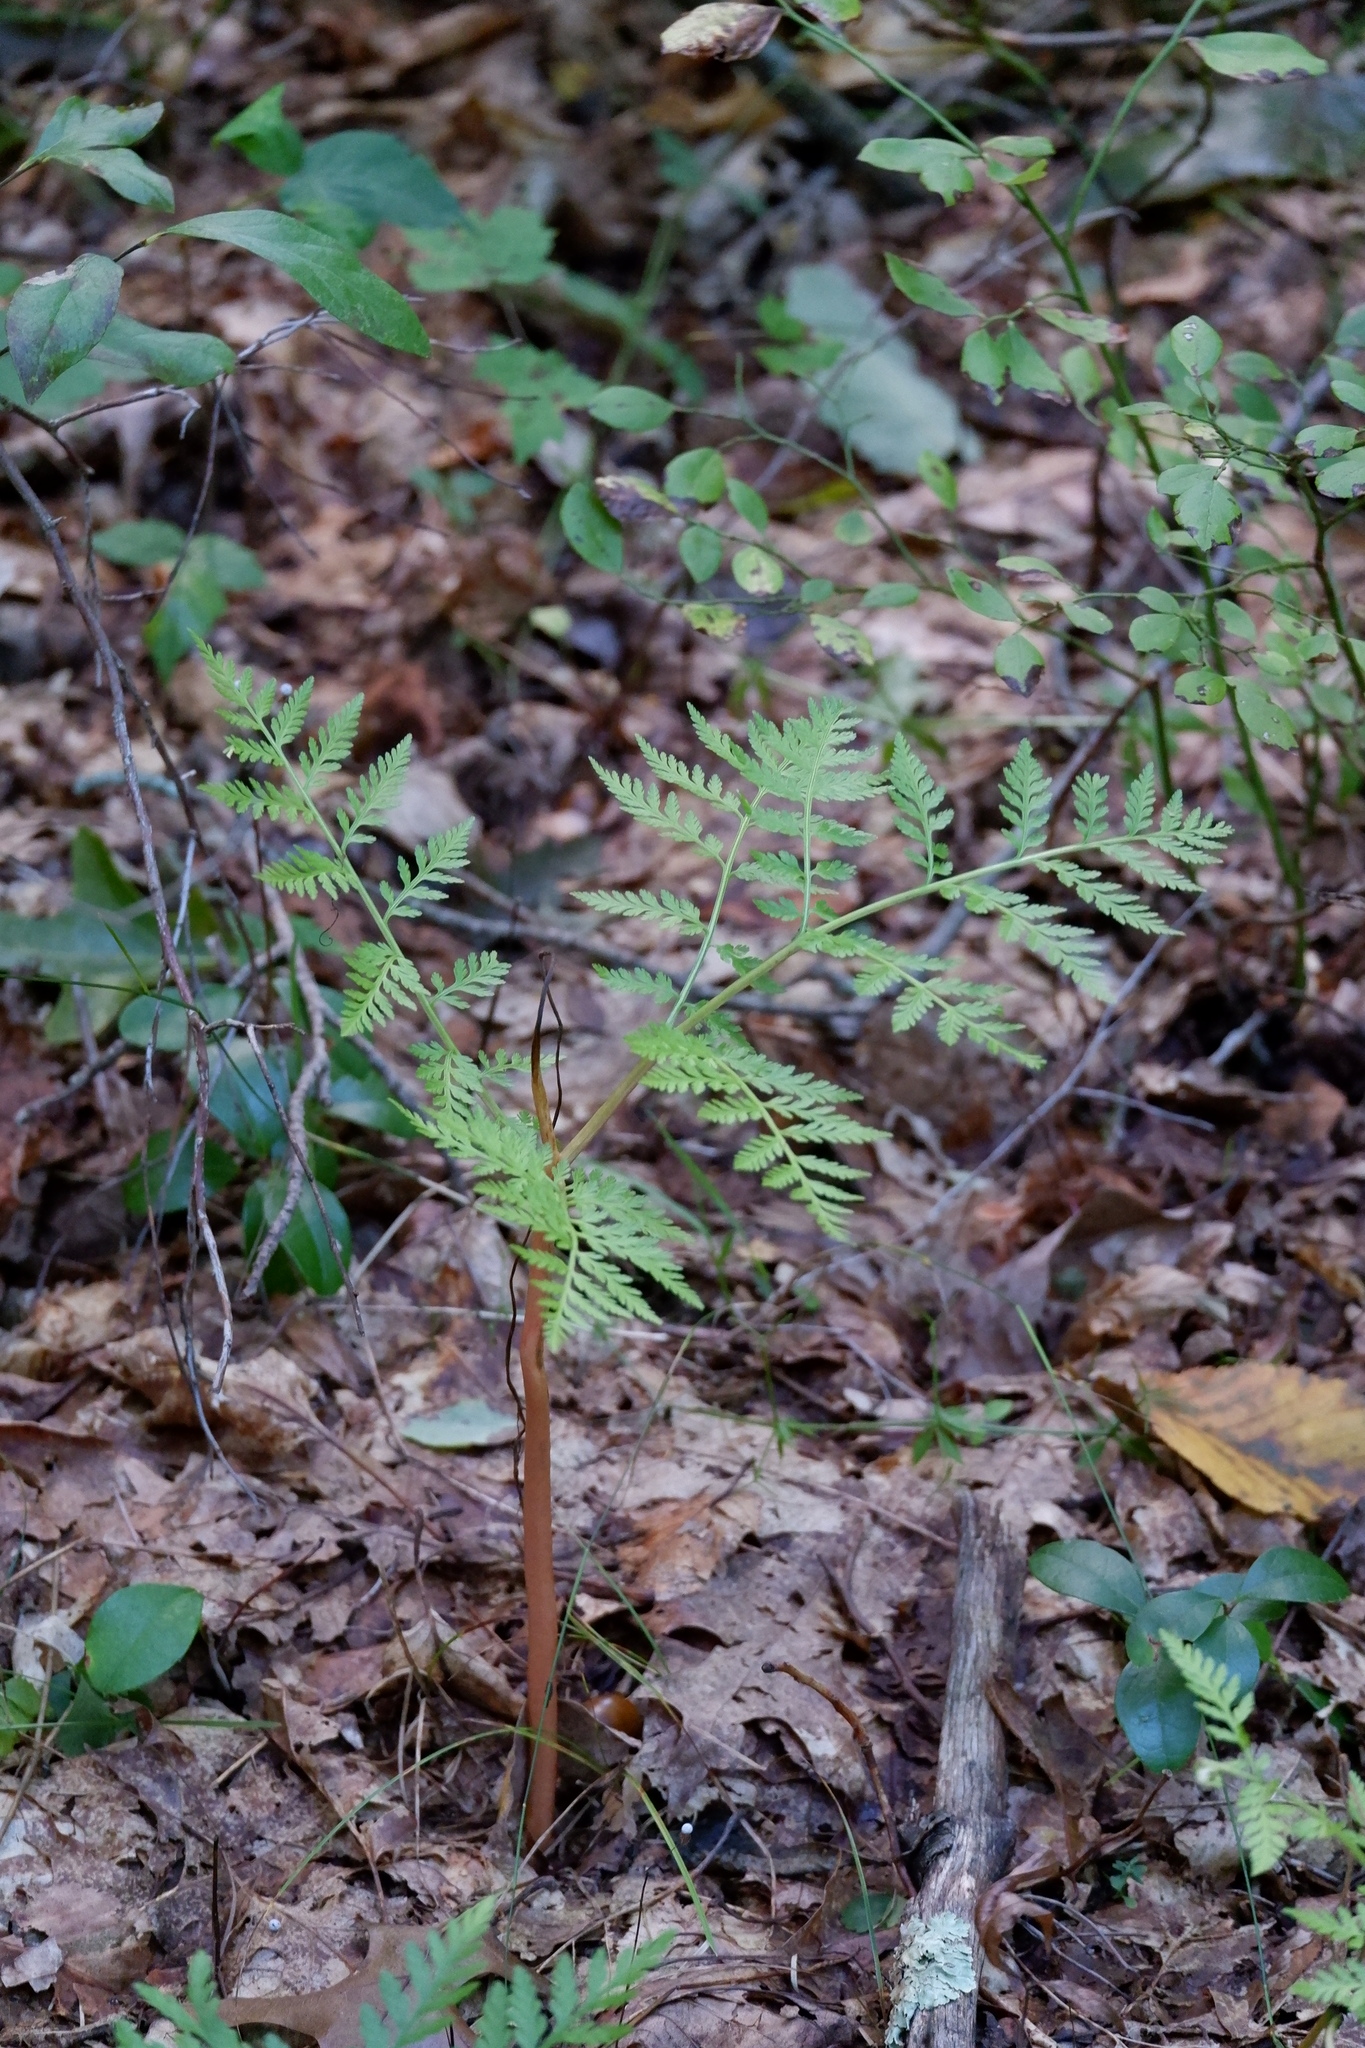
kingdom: Plantae
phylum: Tracheophyta
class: Polypodiopsida
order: Ophioglossales
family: Ophioglossaceae
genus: Botrypus
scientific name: Botrypus virginianus
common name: Common grapefern
